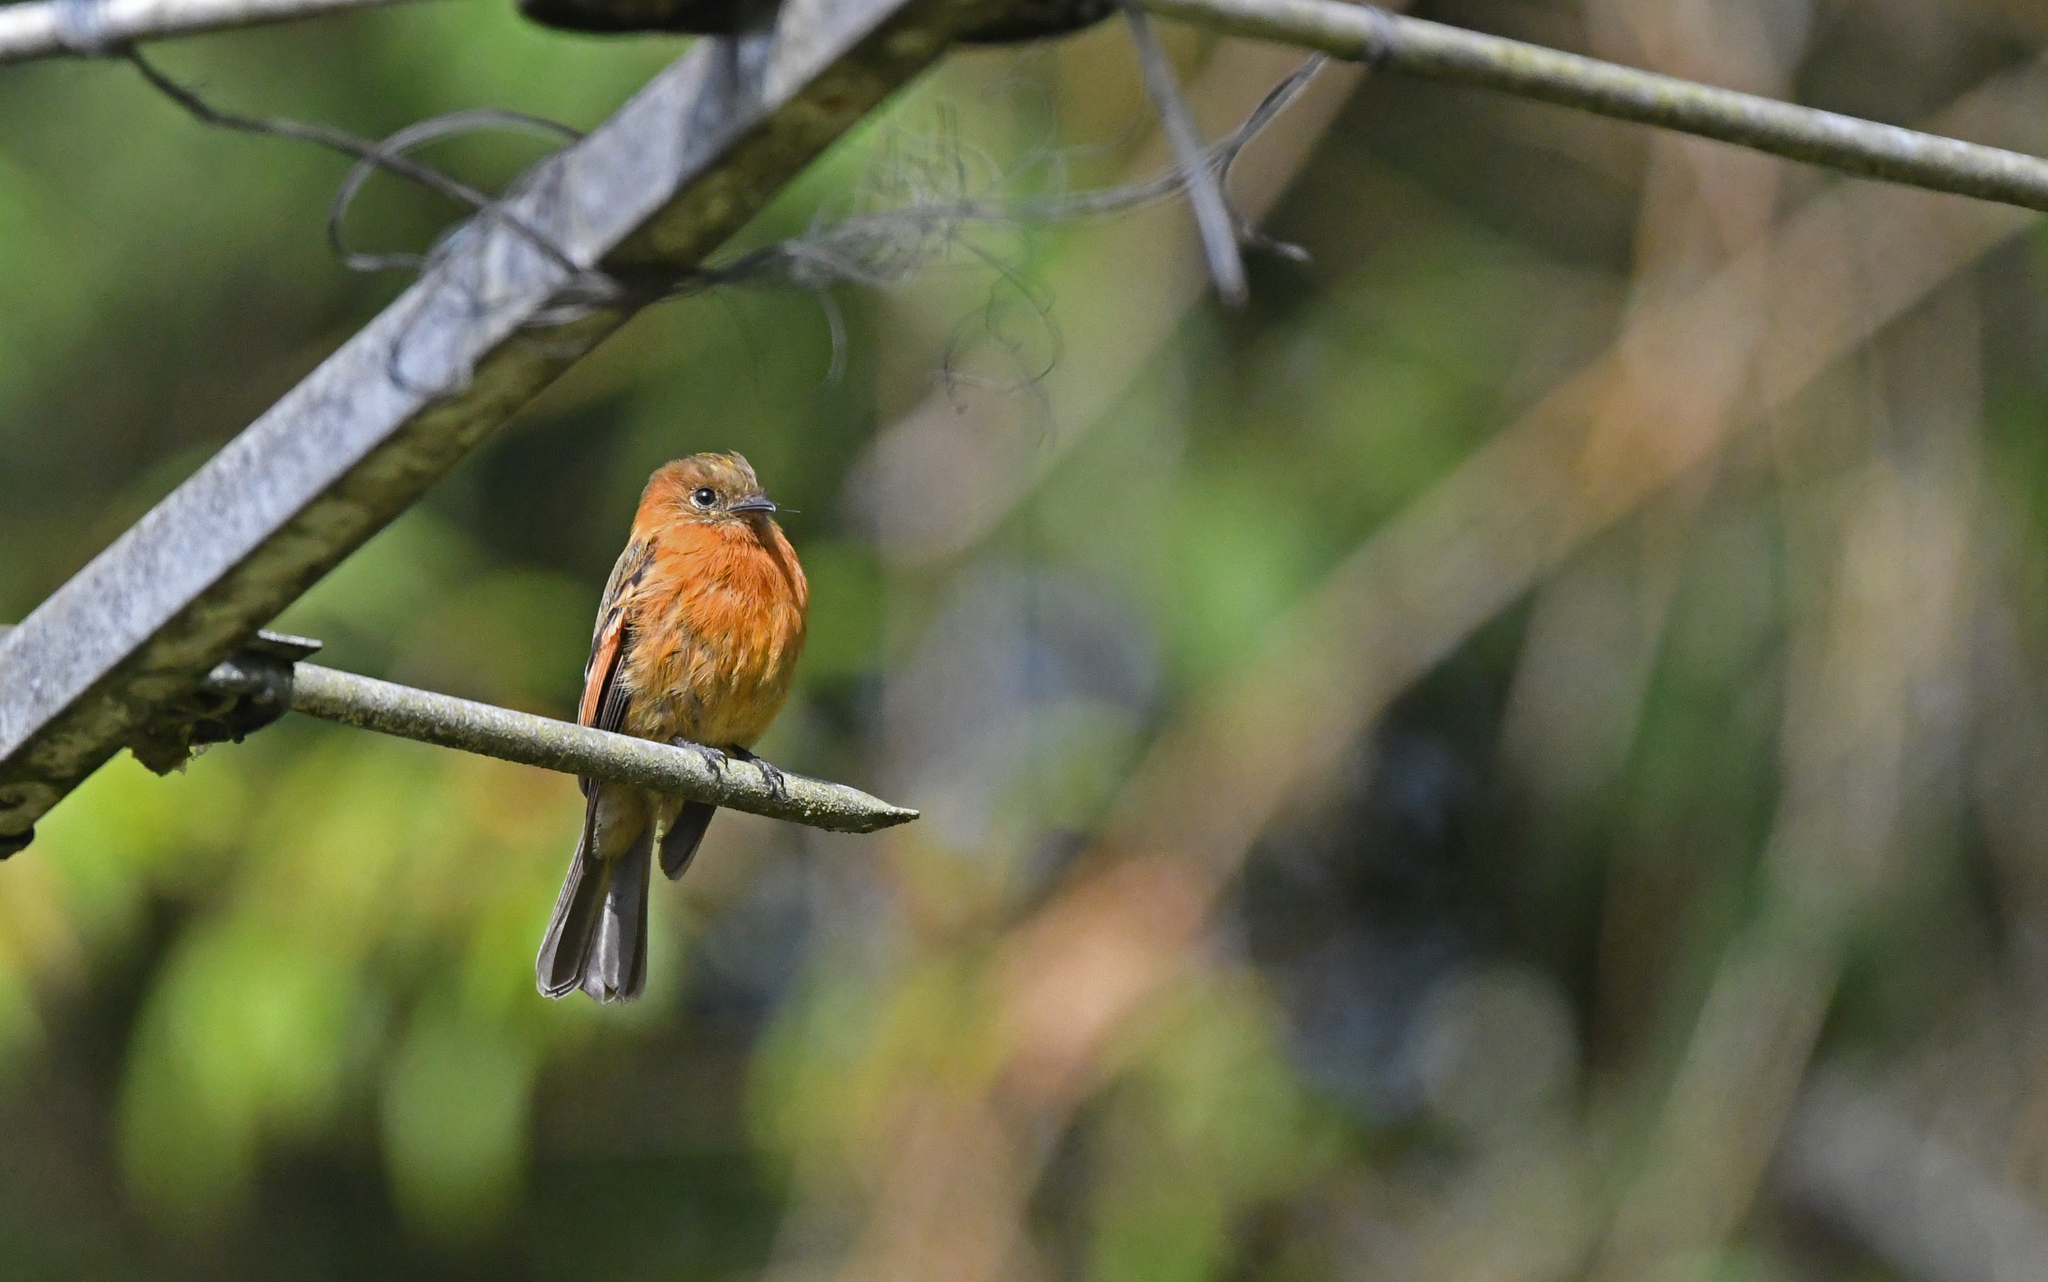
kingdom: Animalia
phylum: Chordata
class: Aves
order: Passeriformes
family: Tyrannidae
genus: Pyrrhomyias
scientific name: Pyrrhomyias cinnamomeus
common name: Cinnamon flycatcher
